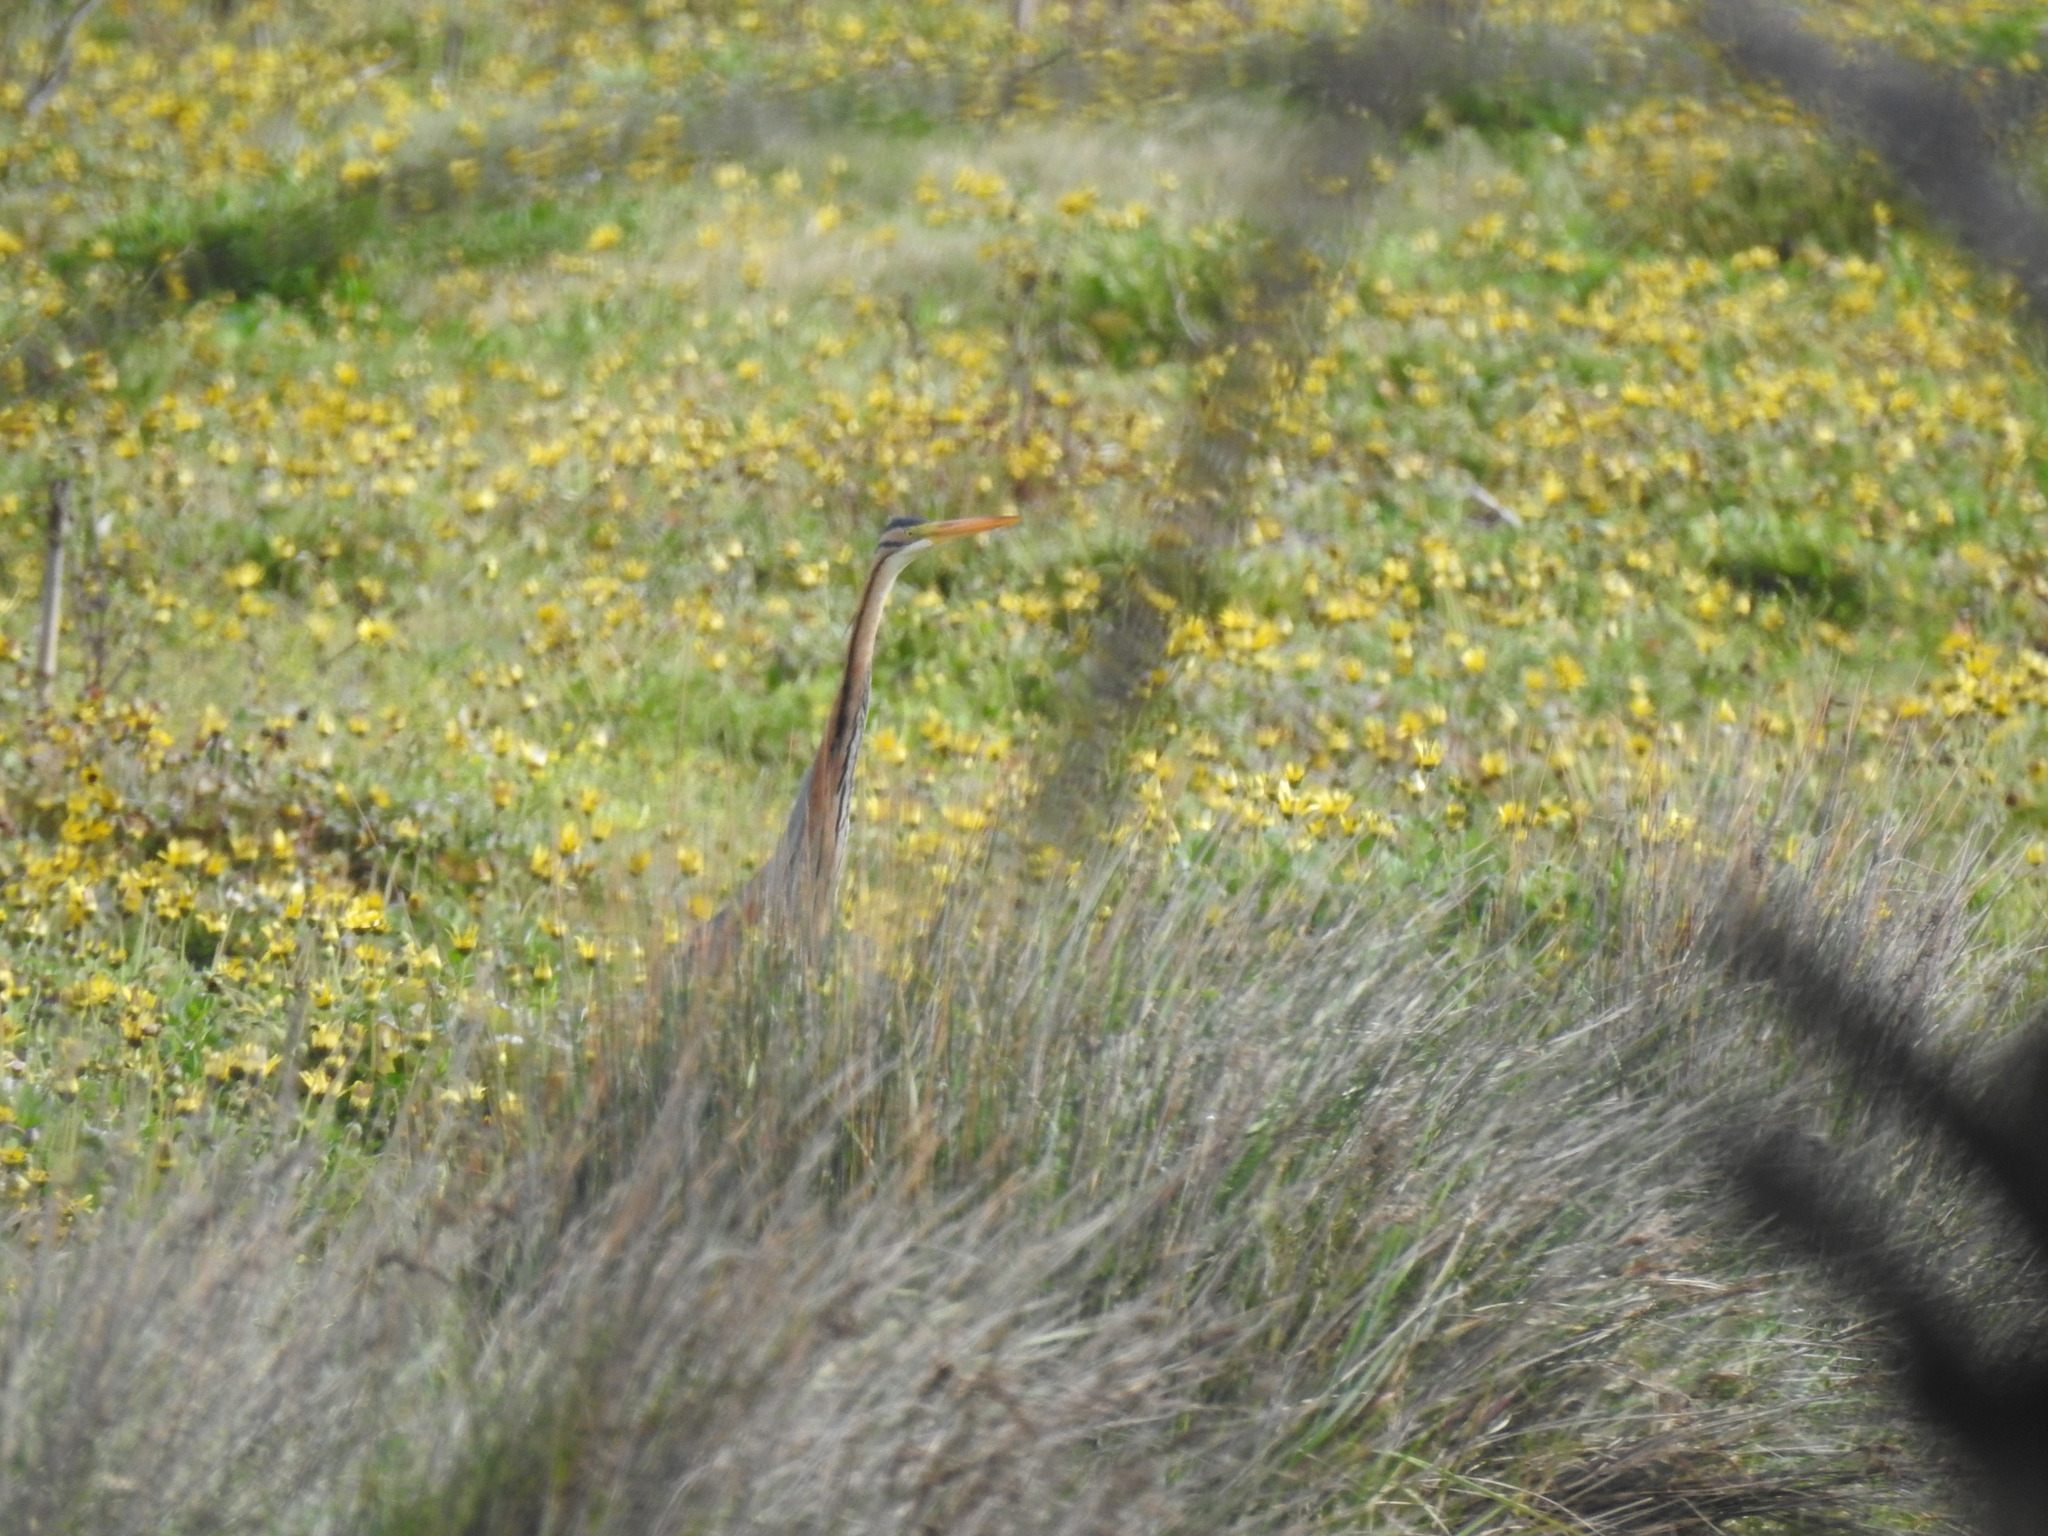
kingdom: Animalia
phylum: Chordata
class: Aves
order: Pelecaniformes
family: Ardeidae
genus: Ardea
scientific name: Ardea purpurea
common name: Purple heron
